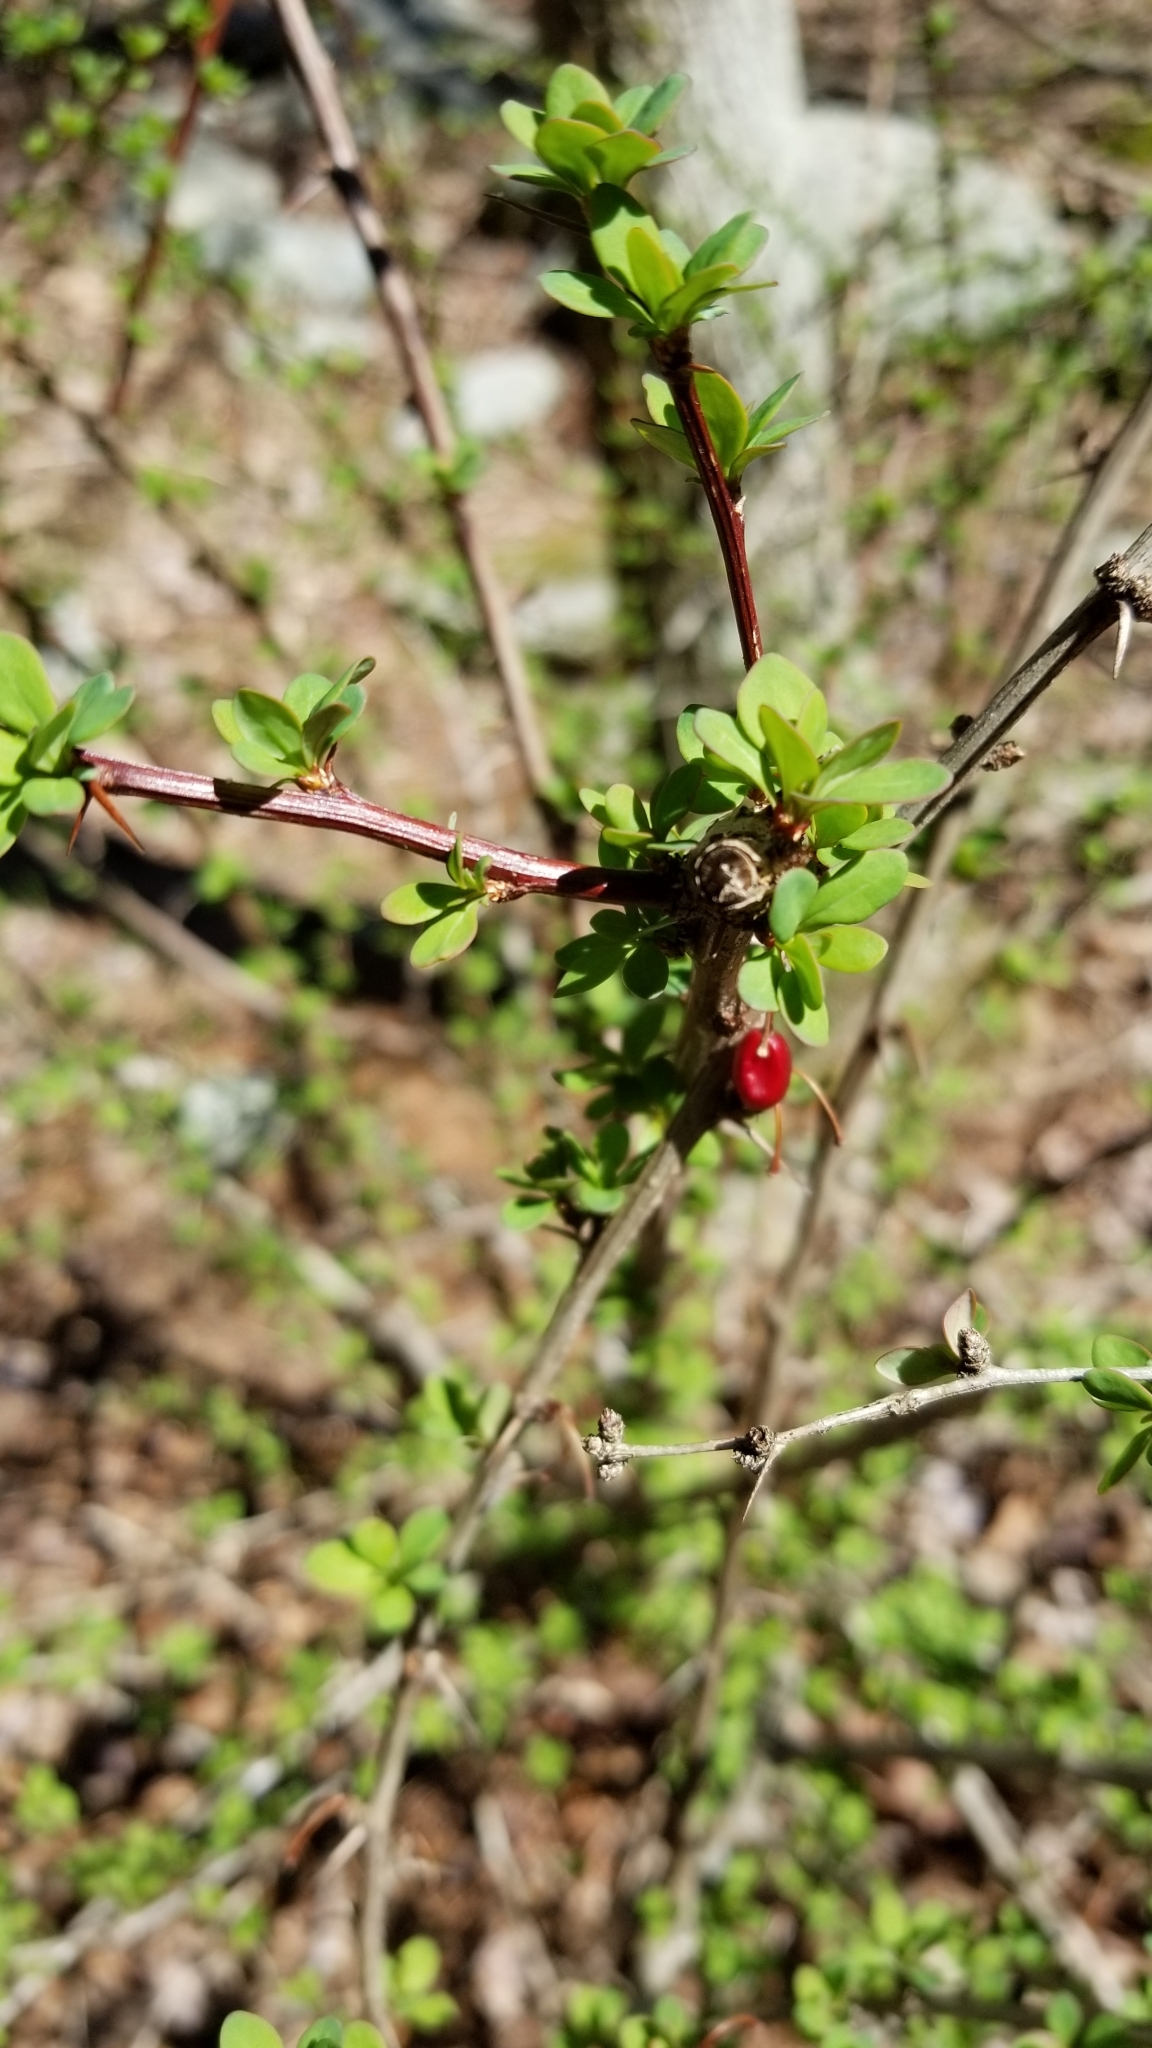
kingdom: Plantae
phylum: Tracheophyta
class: Magnoliopsida
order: Ranunculales
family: Berberidaceae
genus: Berberis
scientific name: Berberis thunbergii
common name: Japanese barberry
